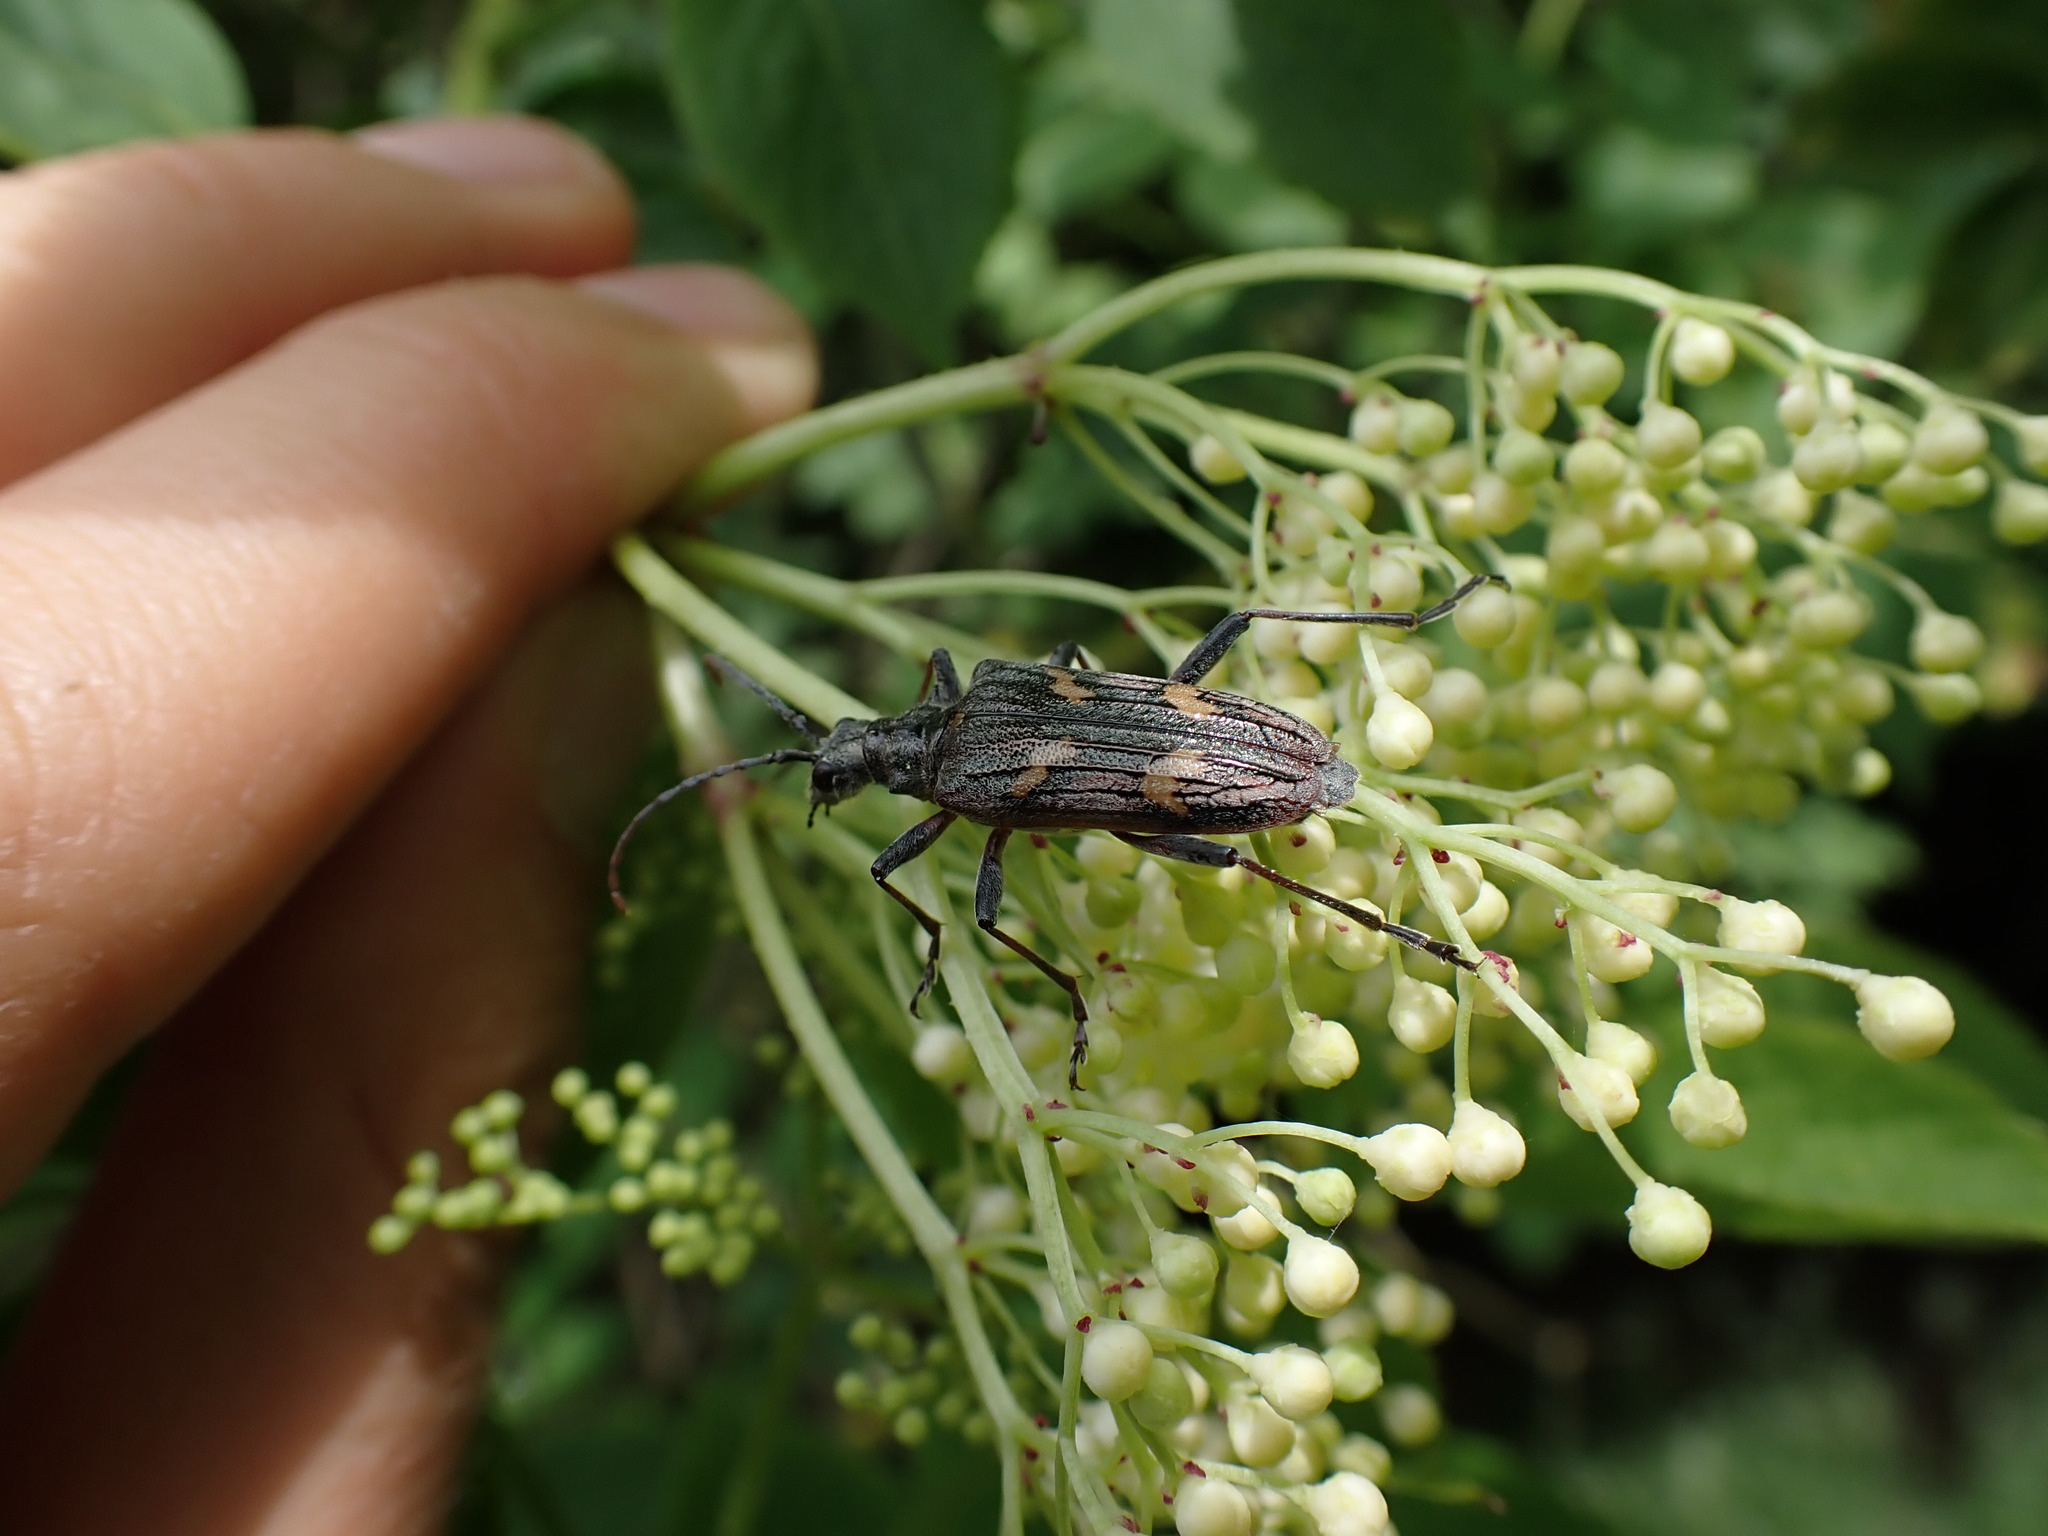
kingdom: Animalia
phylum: Arthropoda
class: Insecta
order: Coleoptera
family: Cerambycidae
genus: Rhagium
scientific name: Rhagium bifasciatum
